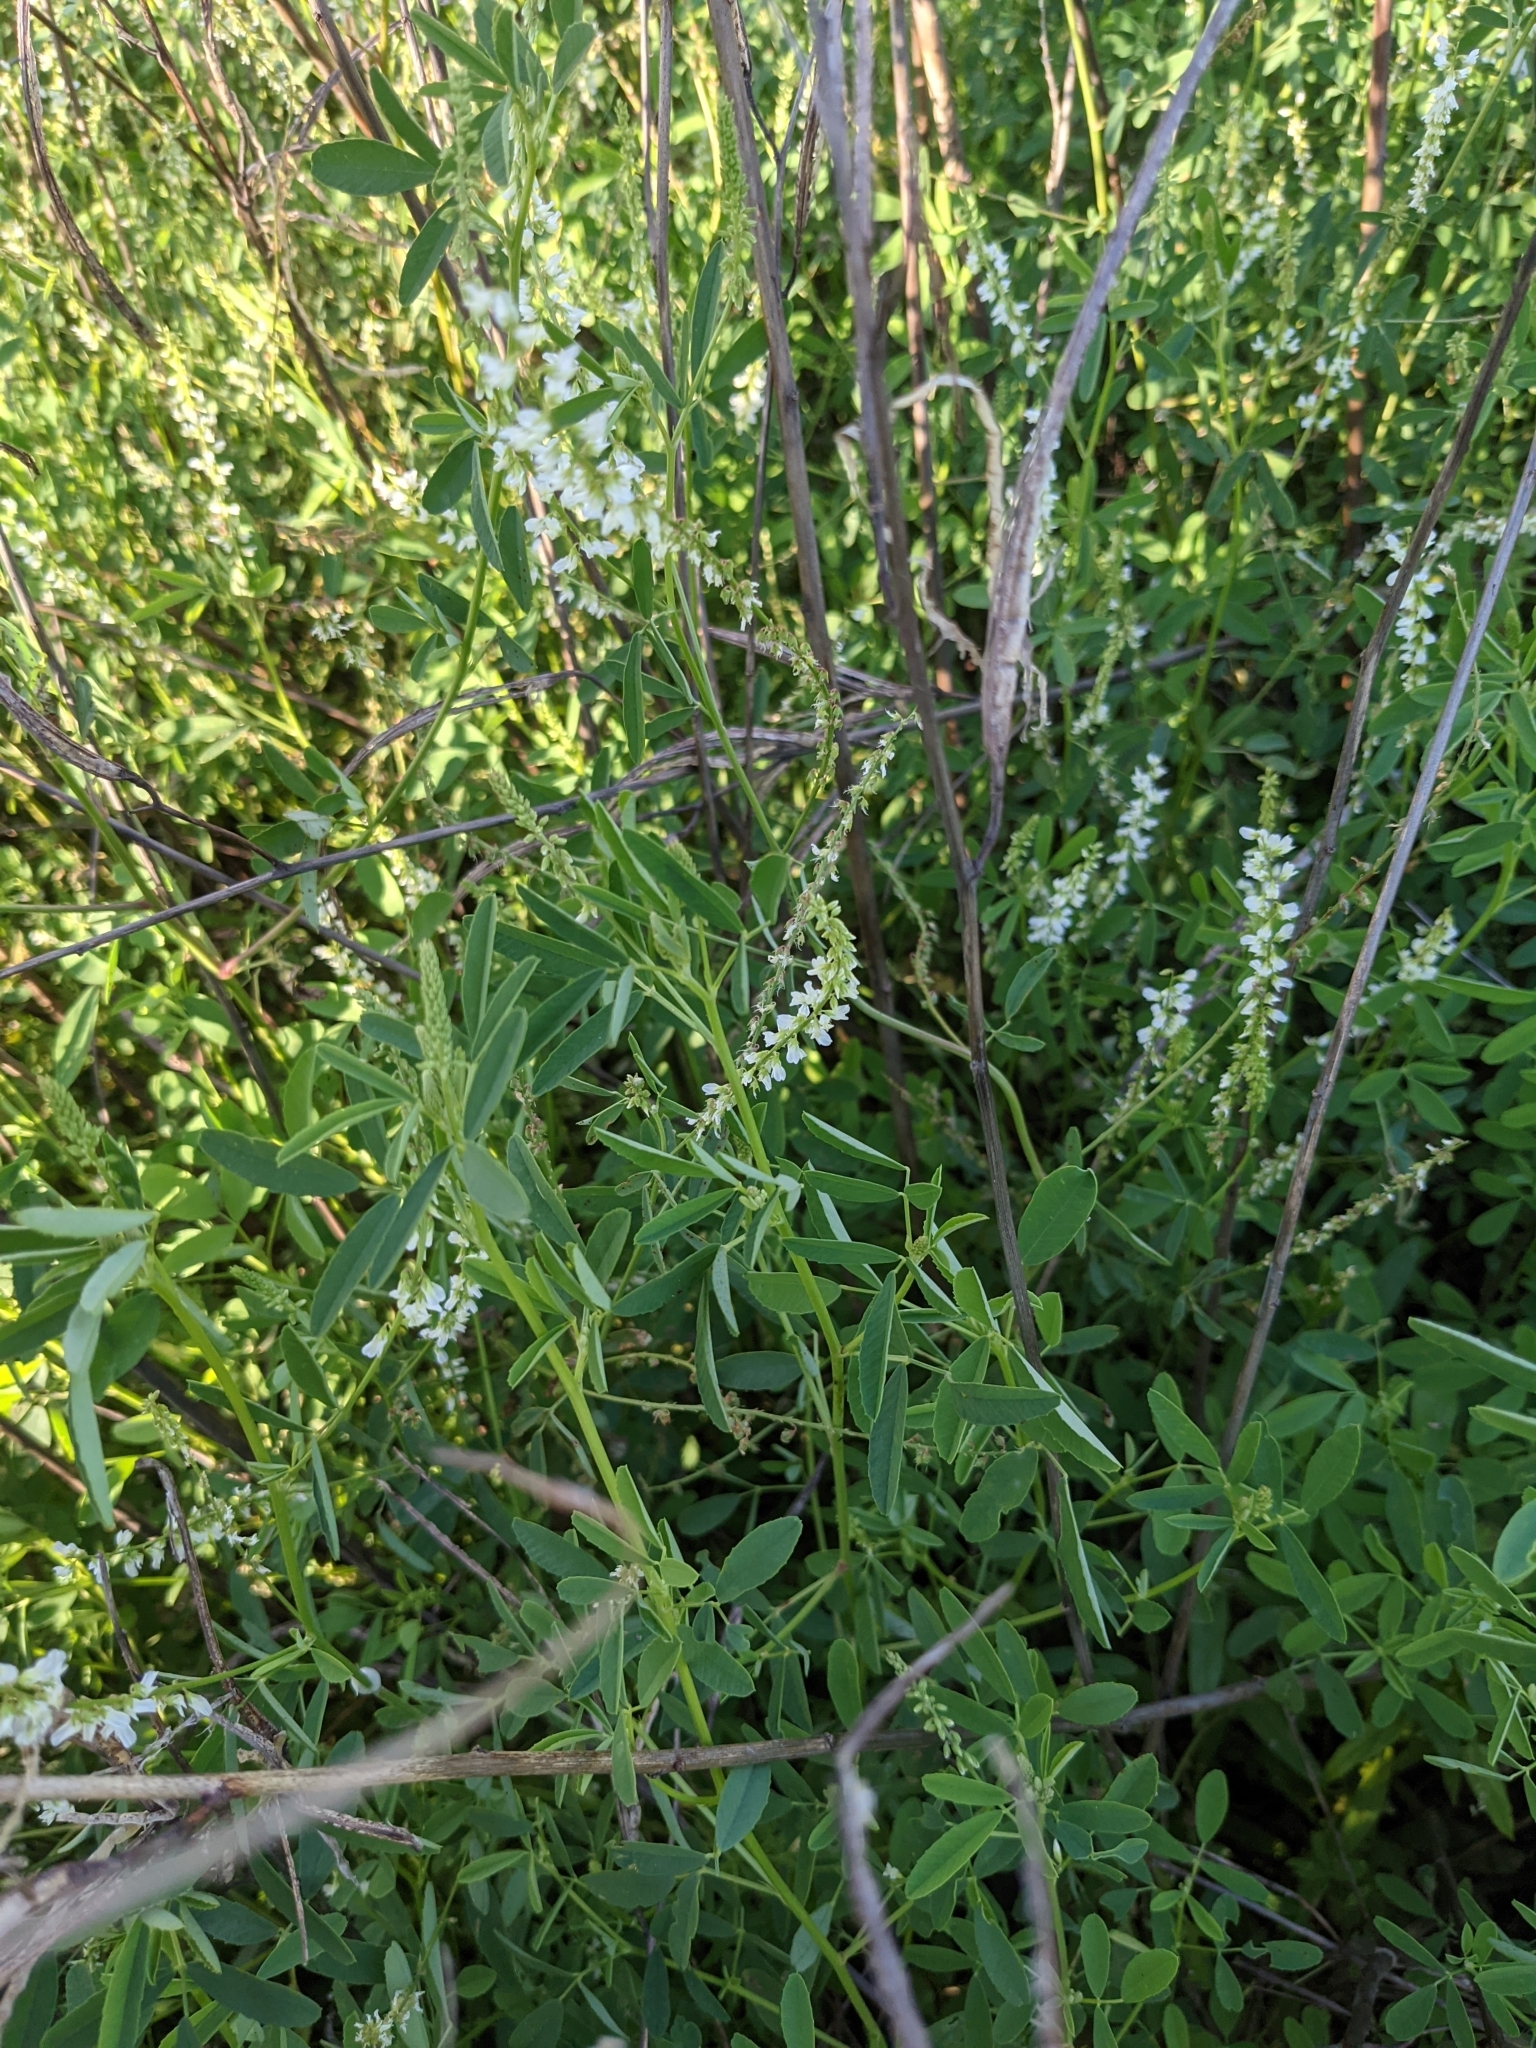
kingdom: Plantae
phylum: Tracheophyta
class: Magnoliopsida
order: Fabales
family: Fabaceae
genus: Melilotus
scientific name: Melilotus albus
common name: White melilot
